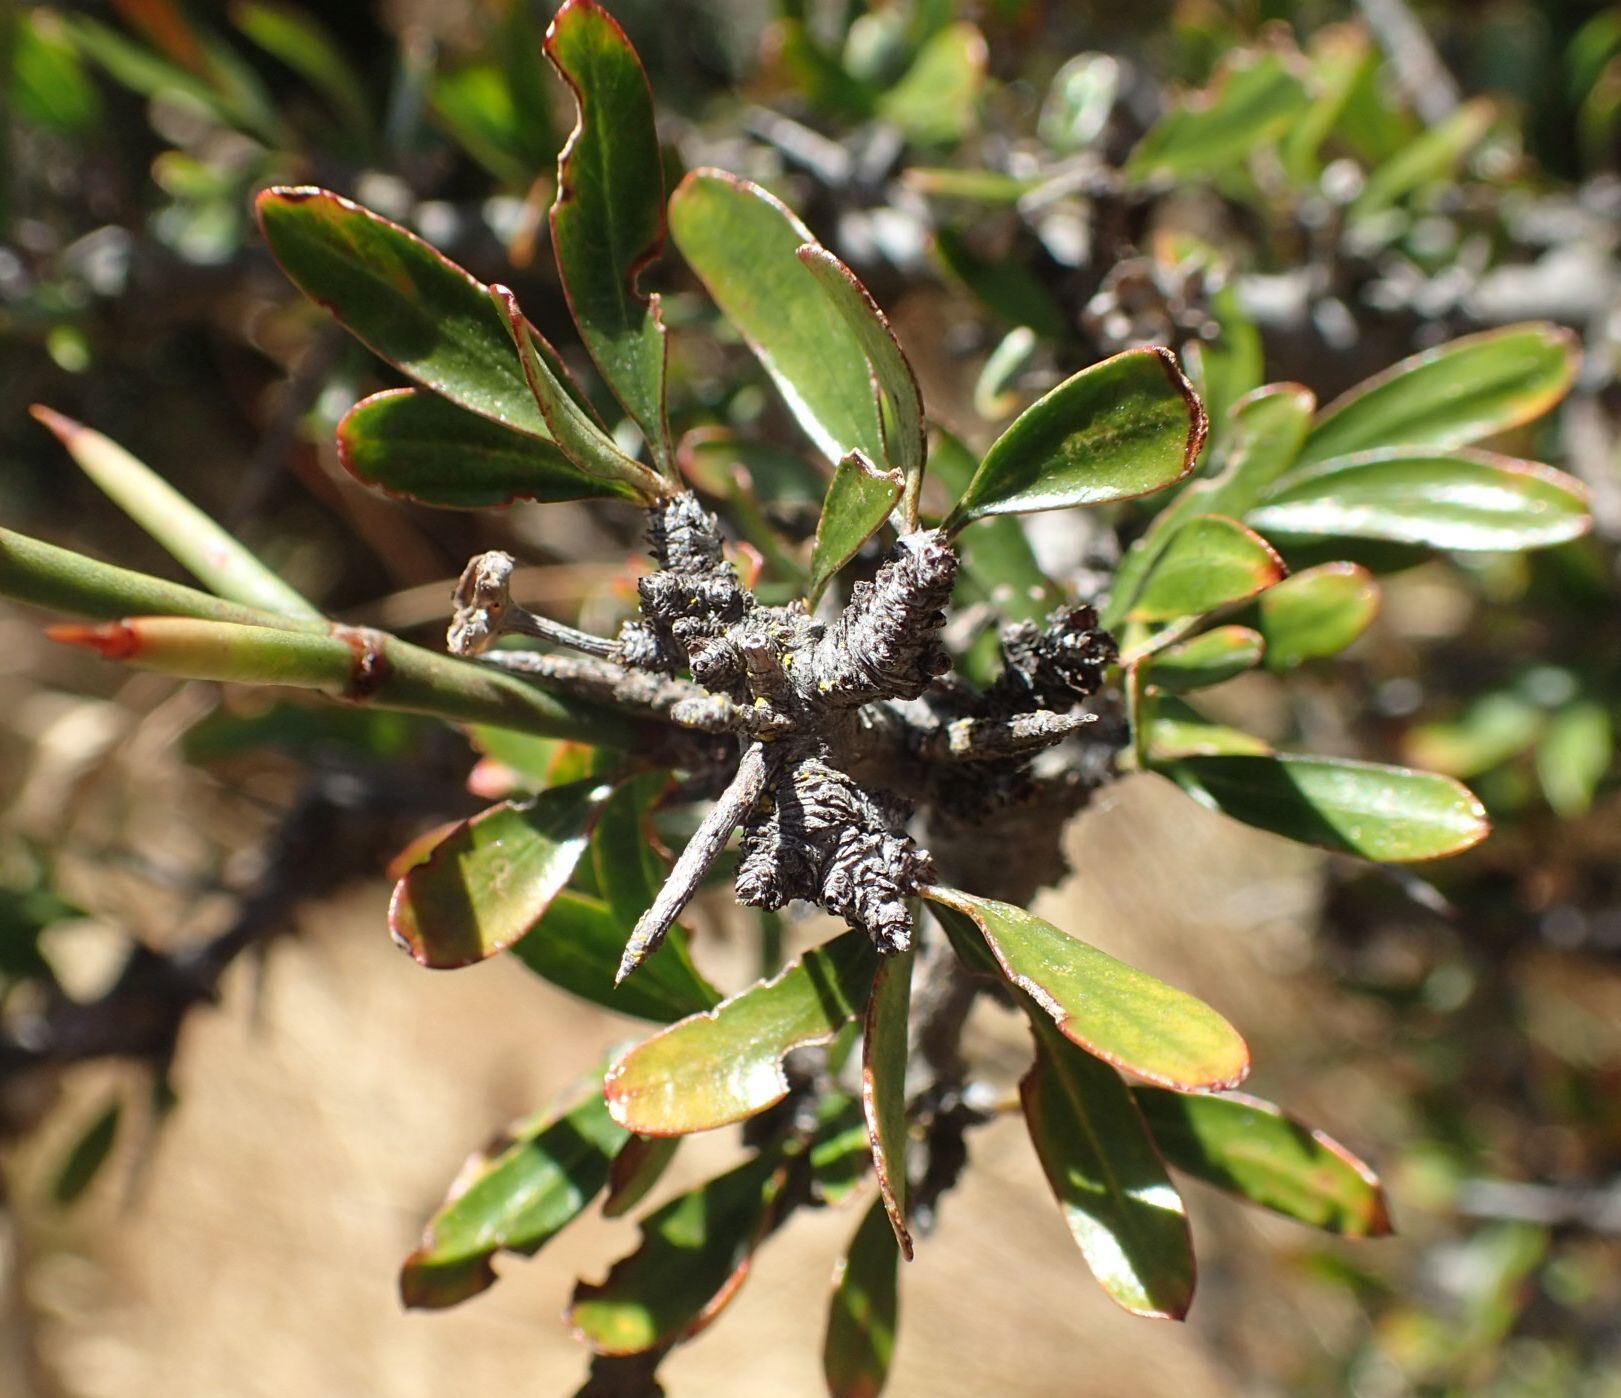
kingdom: Plantae
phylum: Tracheophyta
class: Magnoliopsida
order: Rosales
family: Rhamnaceae
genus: Discaria
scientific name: Discaria toumatou
